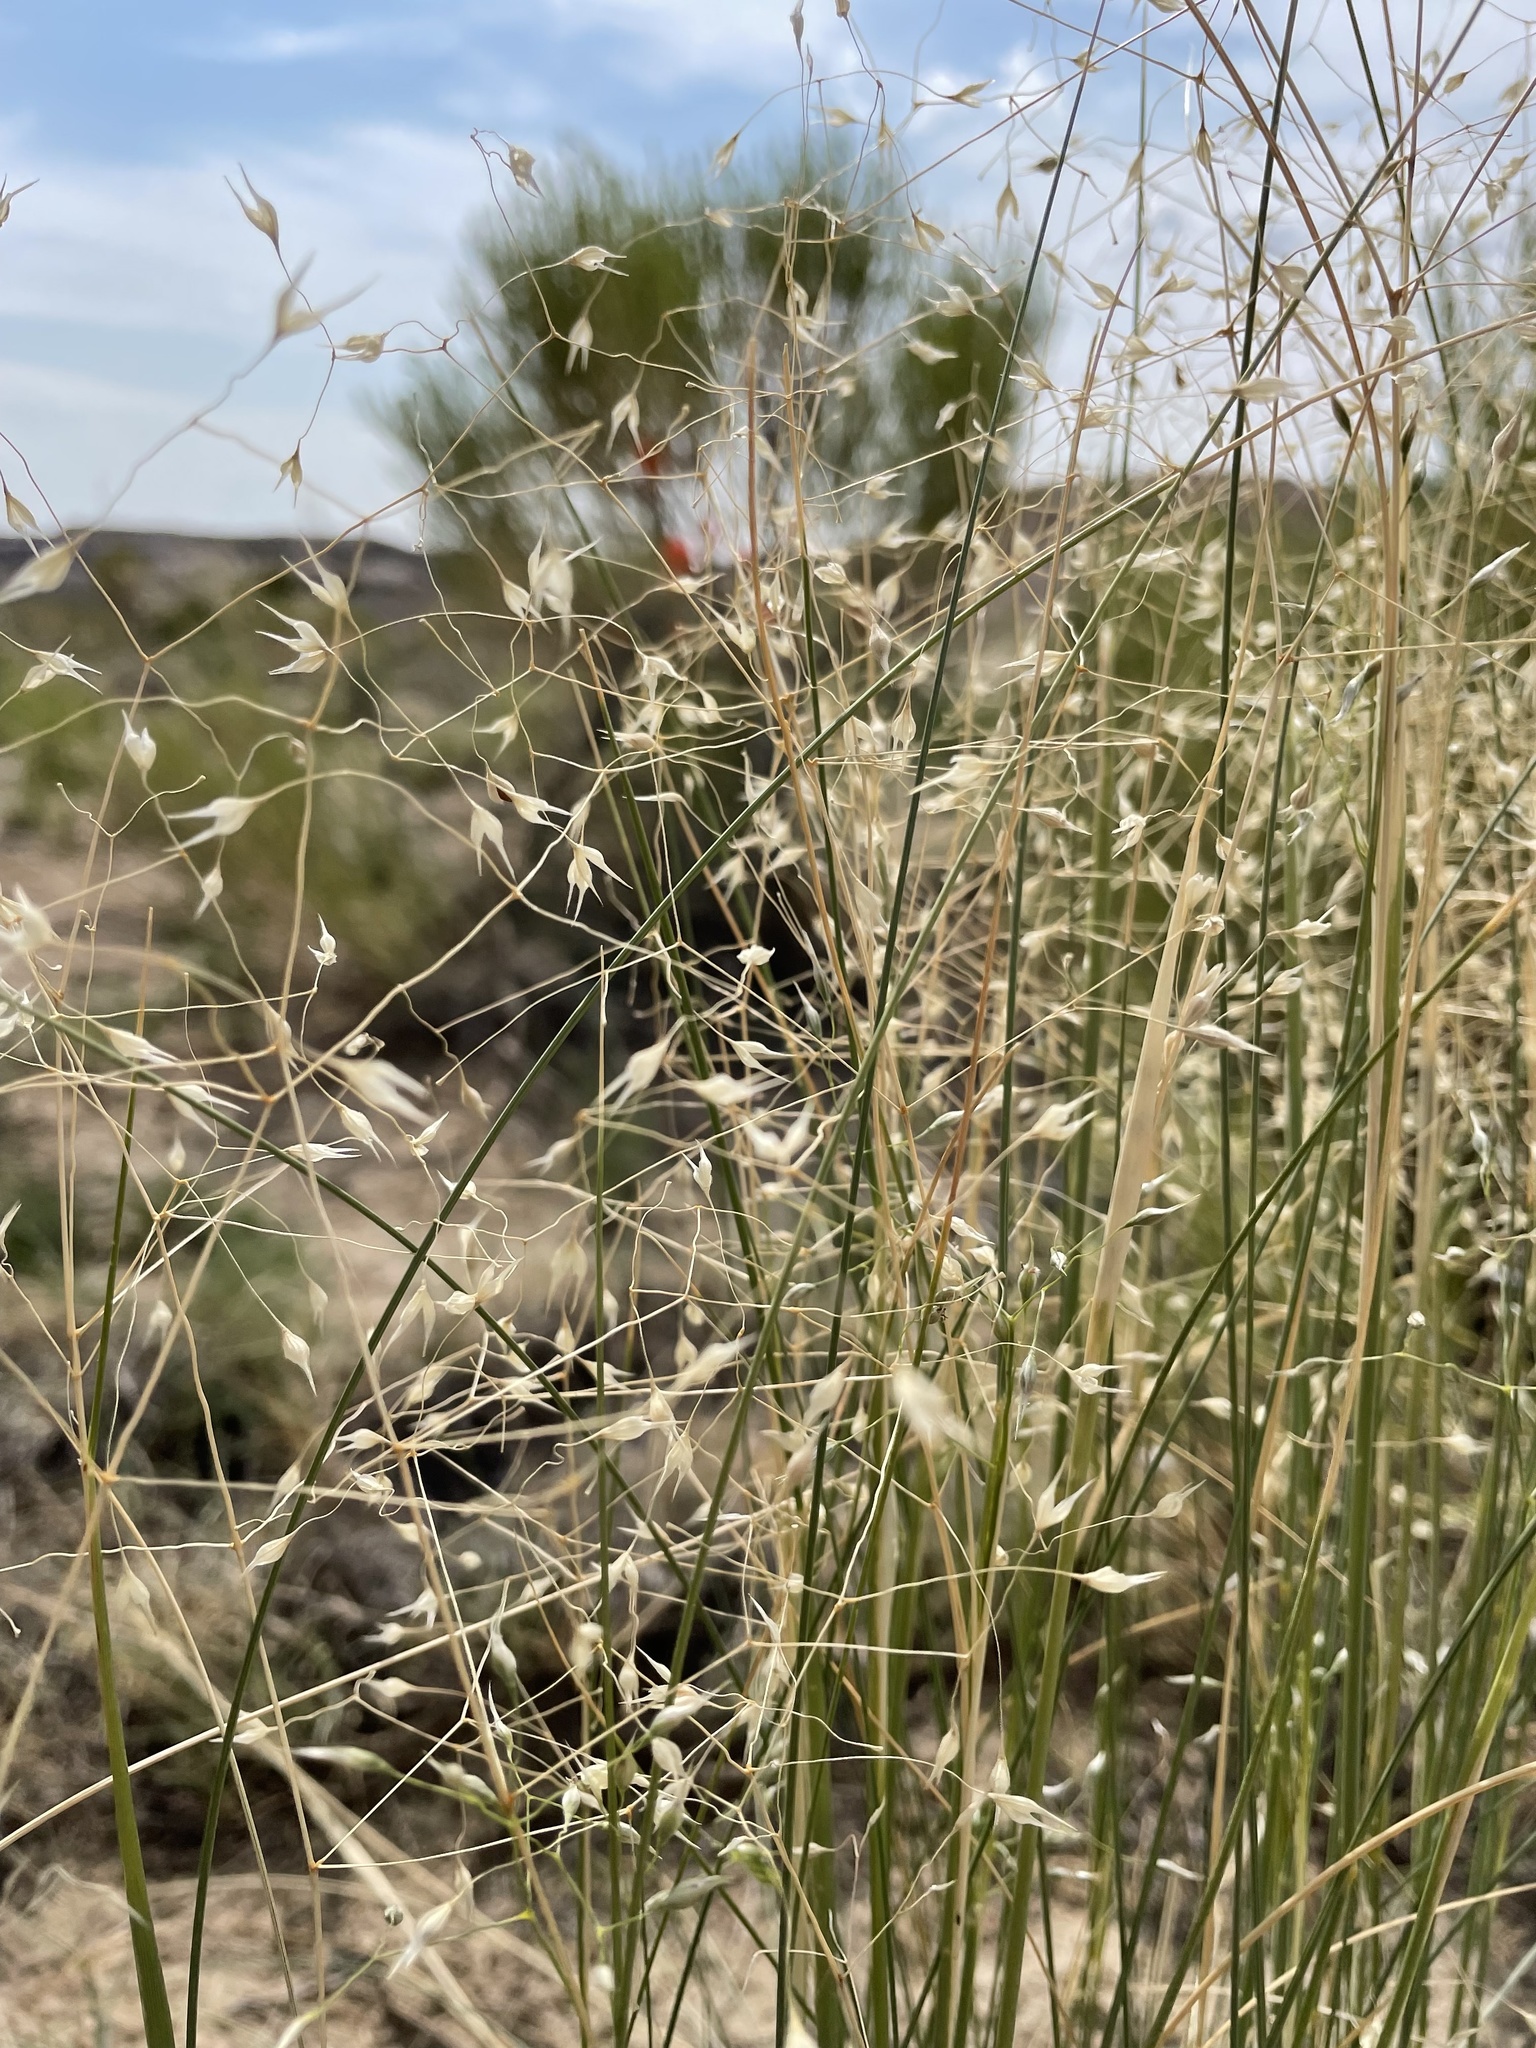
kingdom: Plantae
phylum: Tracheophyta
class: Liliopsida
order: Poales
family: Poaceae
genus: Eriocoma
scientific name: Eriocoma hymenoides
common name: Indian mountain ricegrass
